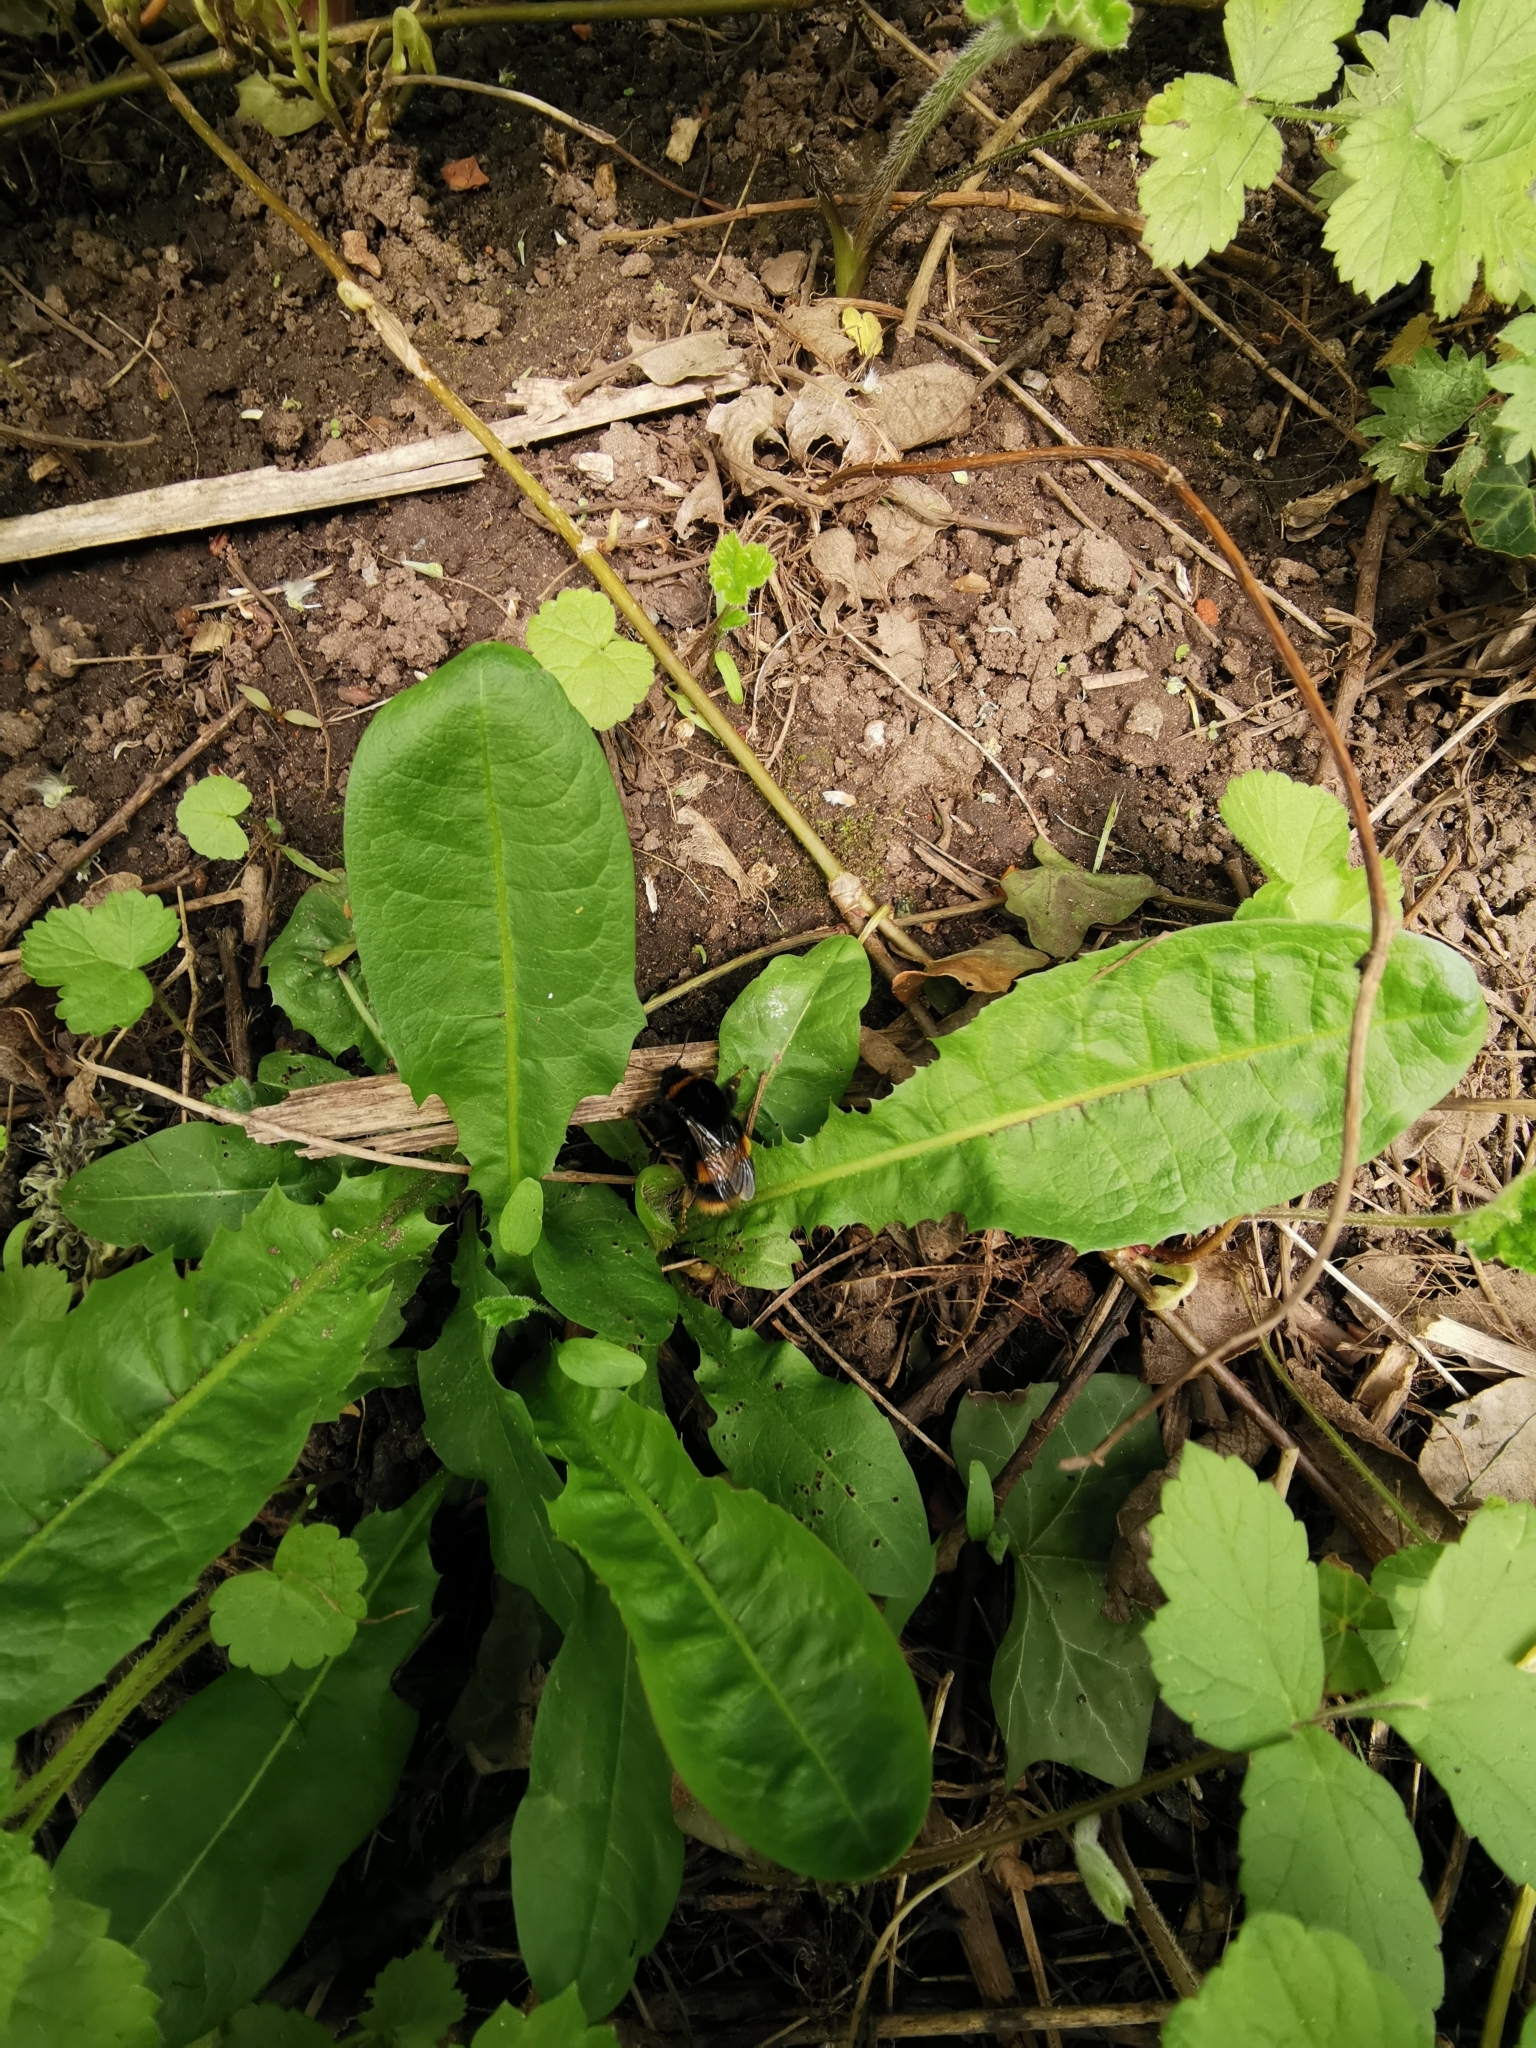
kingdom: Animalia
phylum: Arthropoda
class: Insecta
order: Hymenoptera
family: Apidae
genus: Bombus
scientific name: Bombus terrestris
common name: Buff-tailed bumblebee
